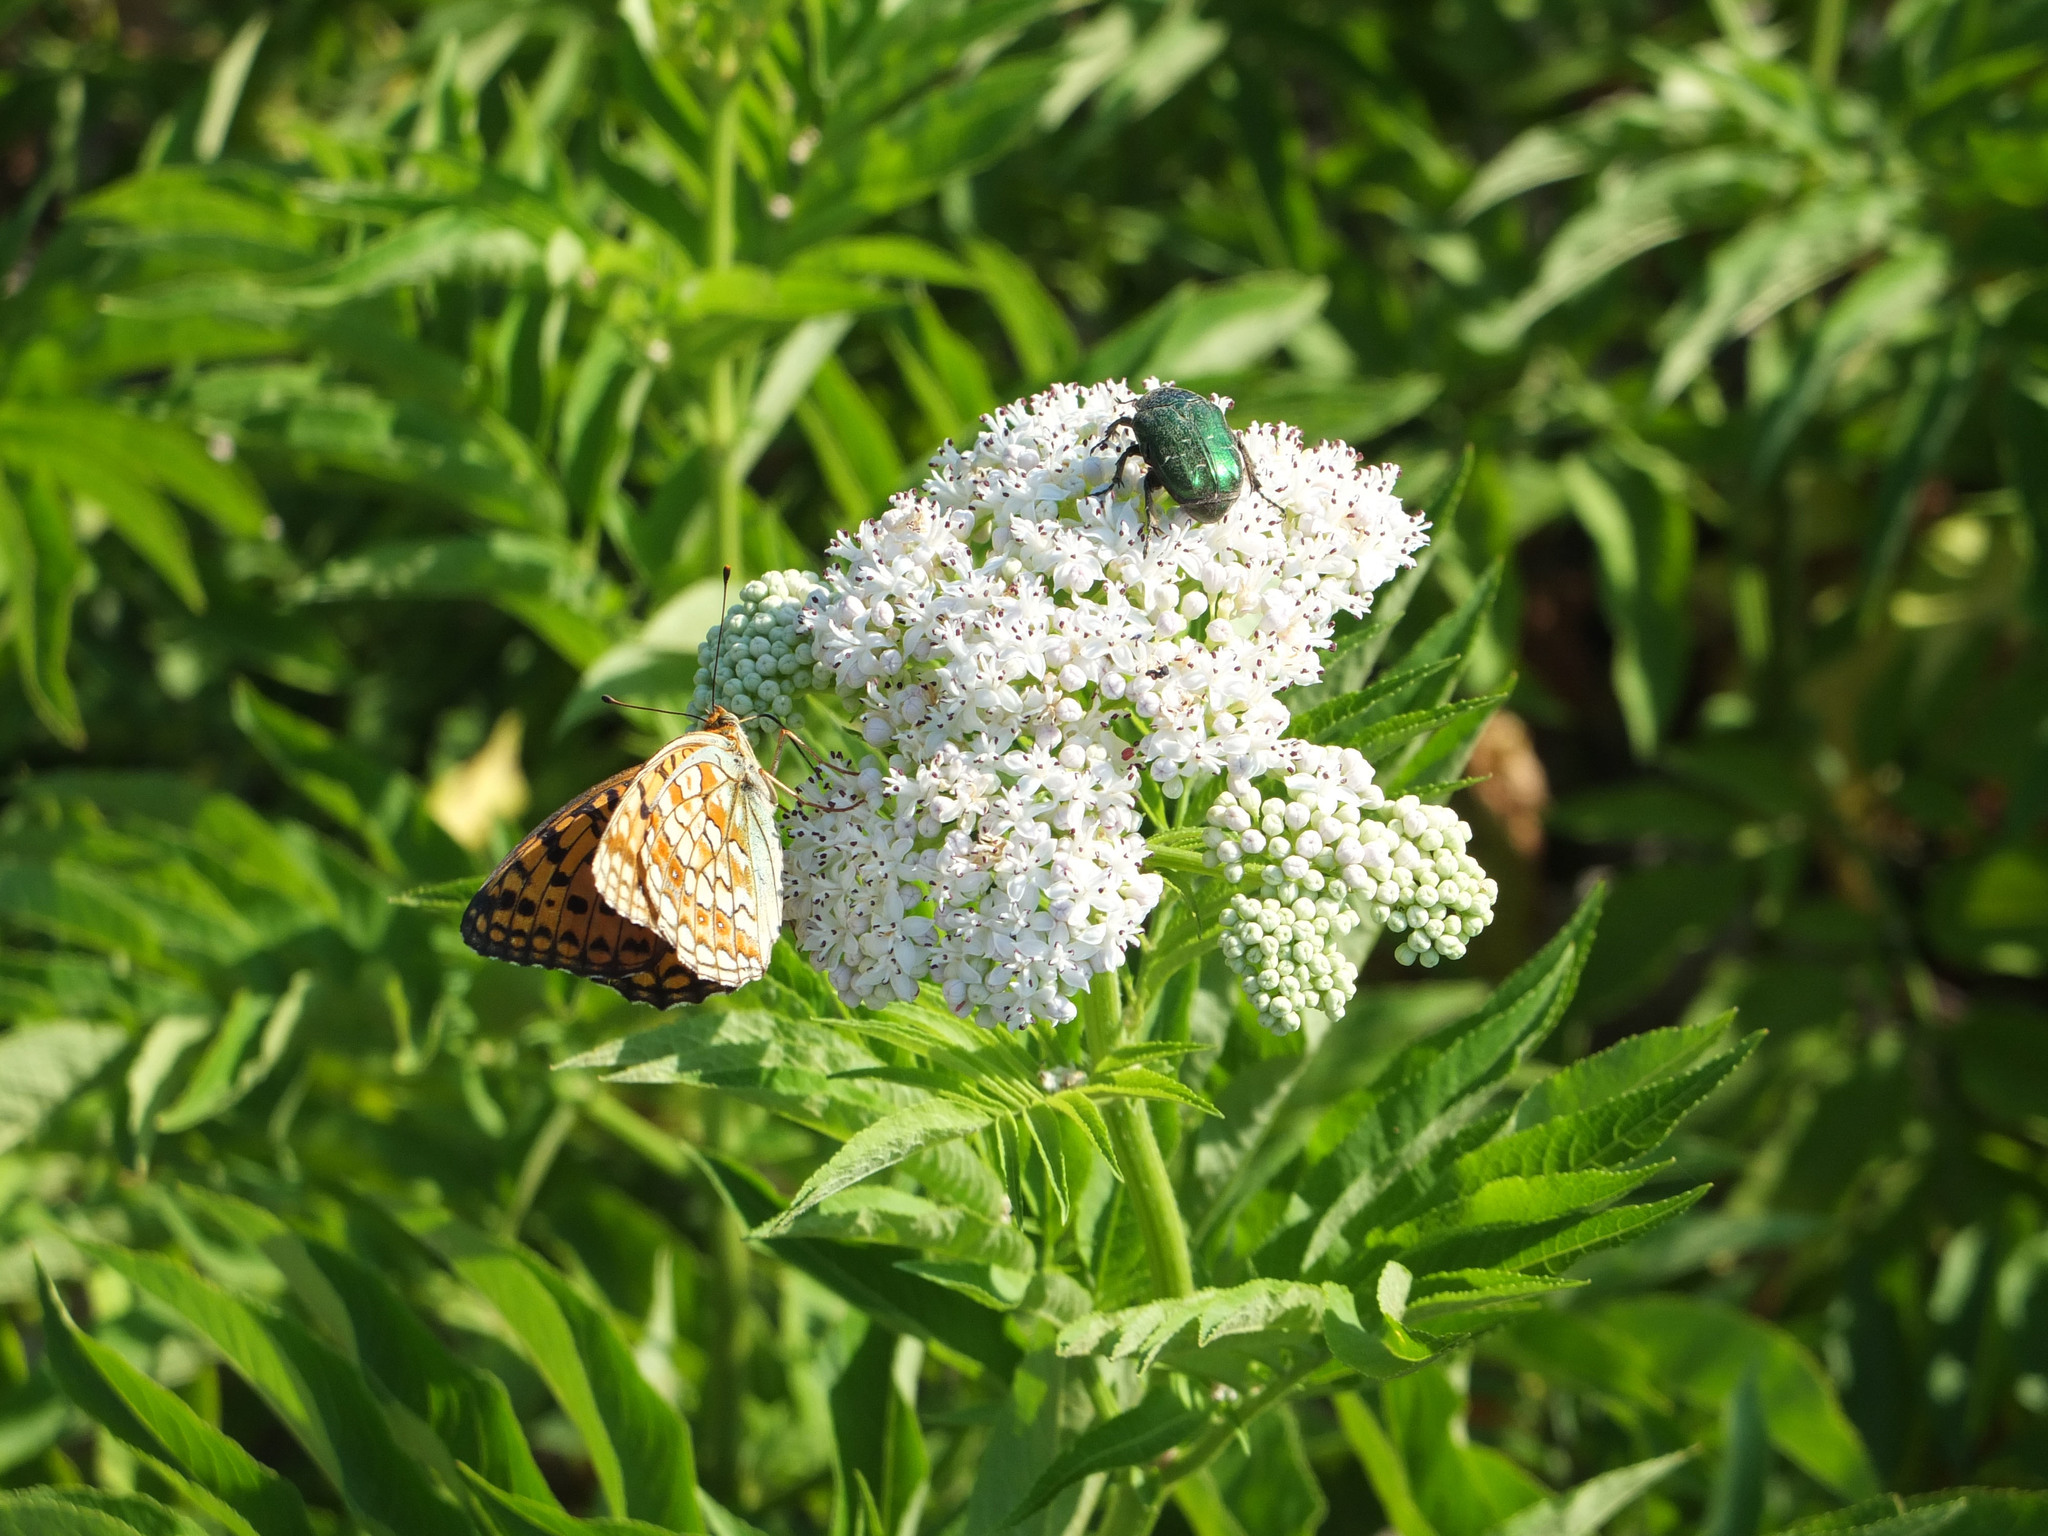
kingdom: Animalia
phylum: Arthropoda
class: Insecta
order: Lepidoptera
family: Nymphalidae
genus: Fabriciana
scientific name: Fabriciana niobe
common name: Niobe fritillary
